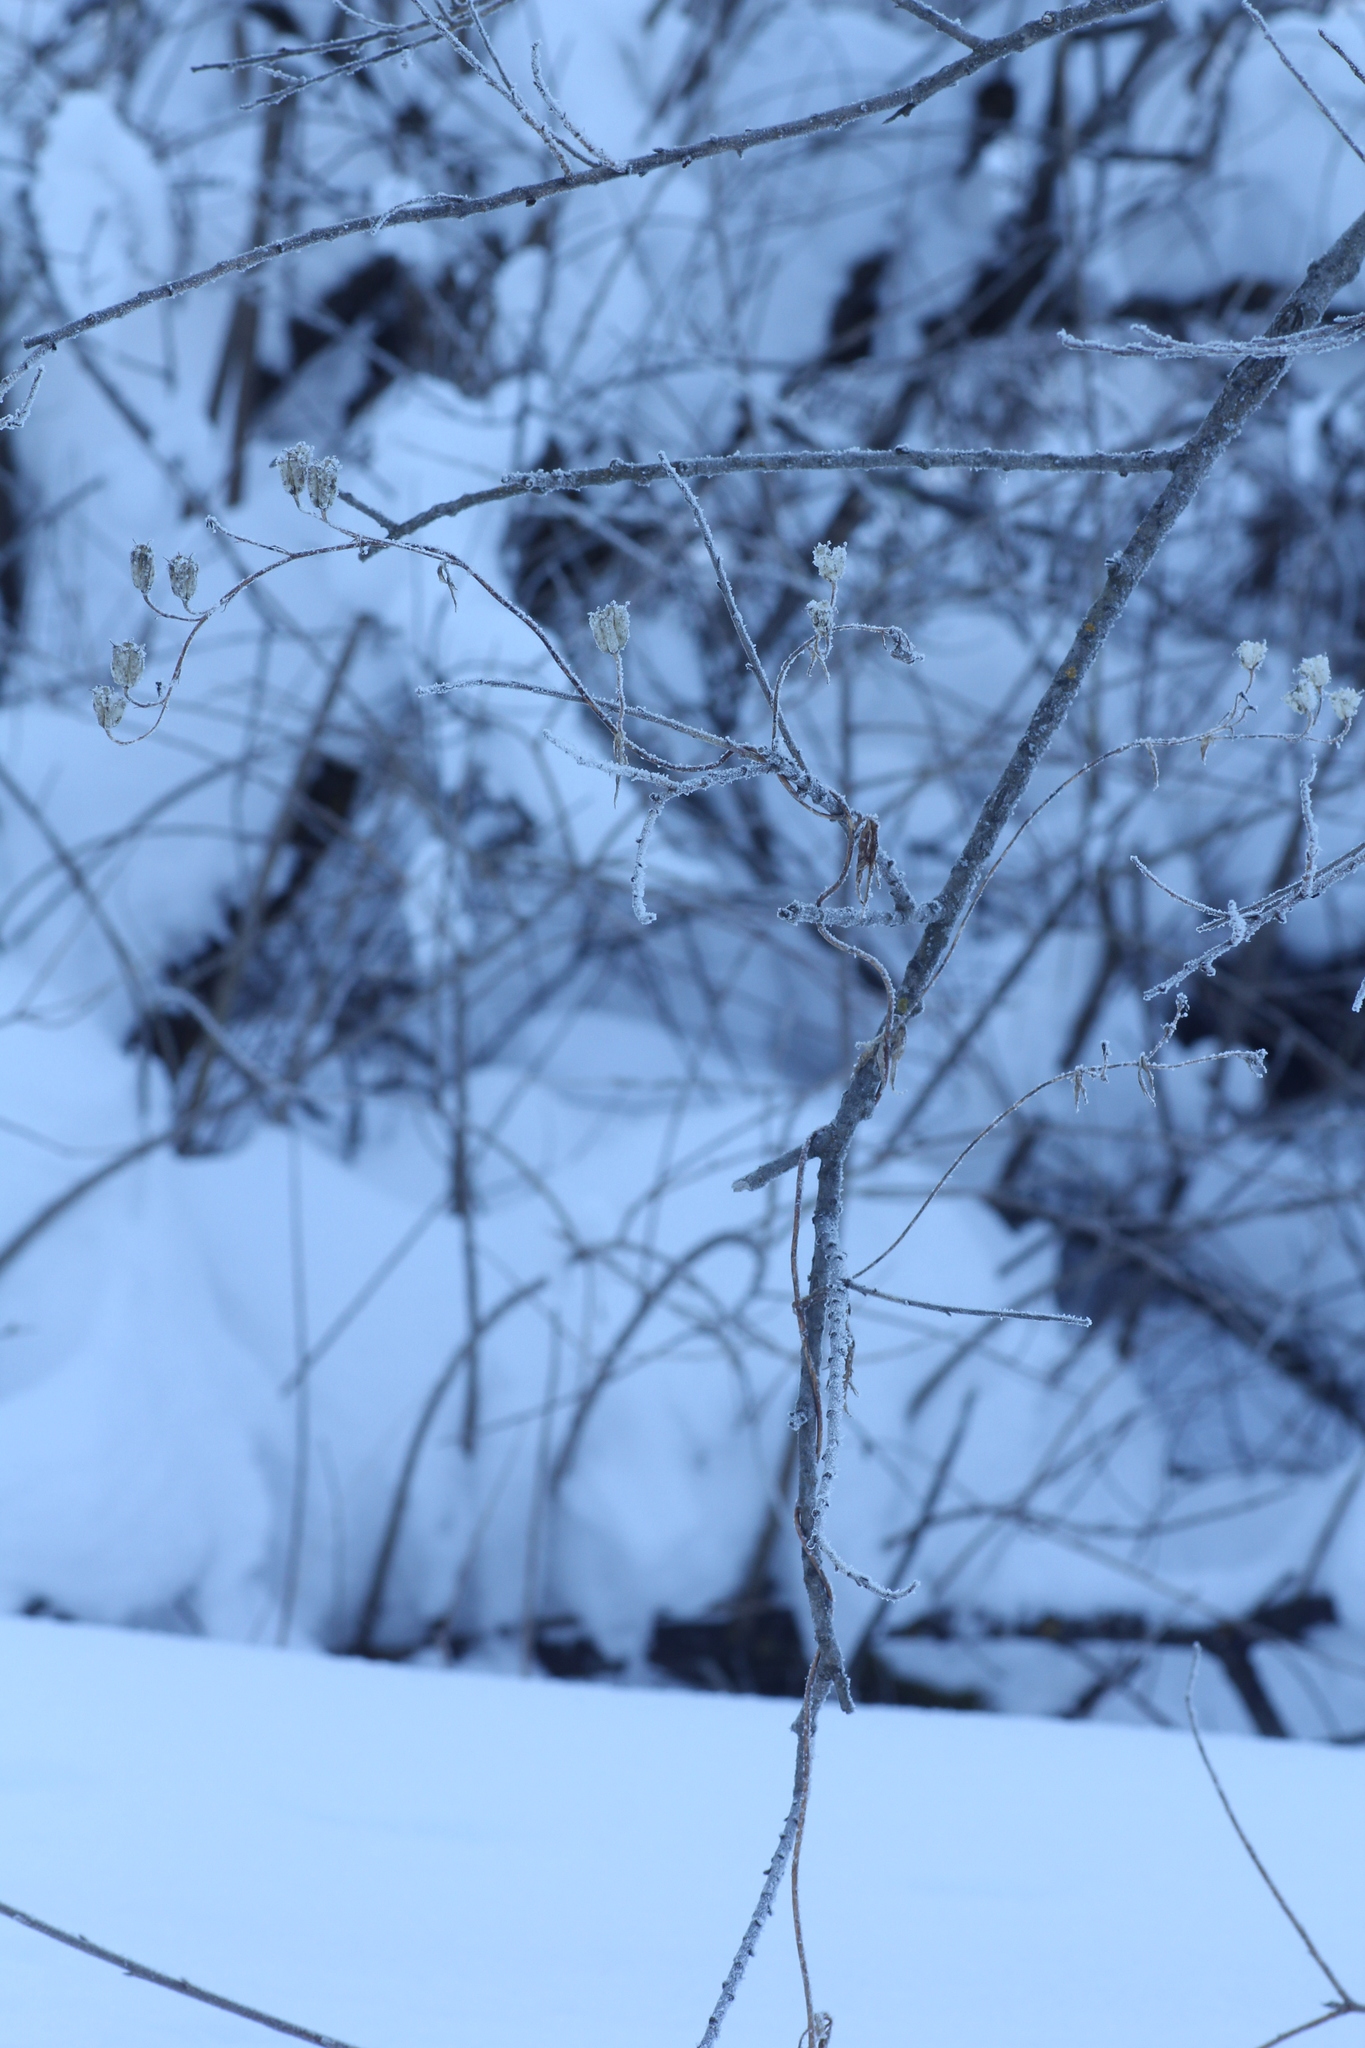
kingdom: Plantae
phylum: Tracheophyta
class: Magnoliopsida
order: Ranunculales
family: Ranunculaceae
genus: Aconitum
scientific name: Aconitum volubile
